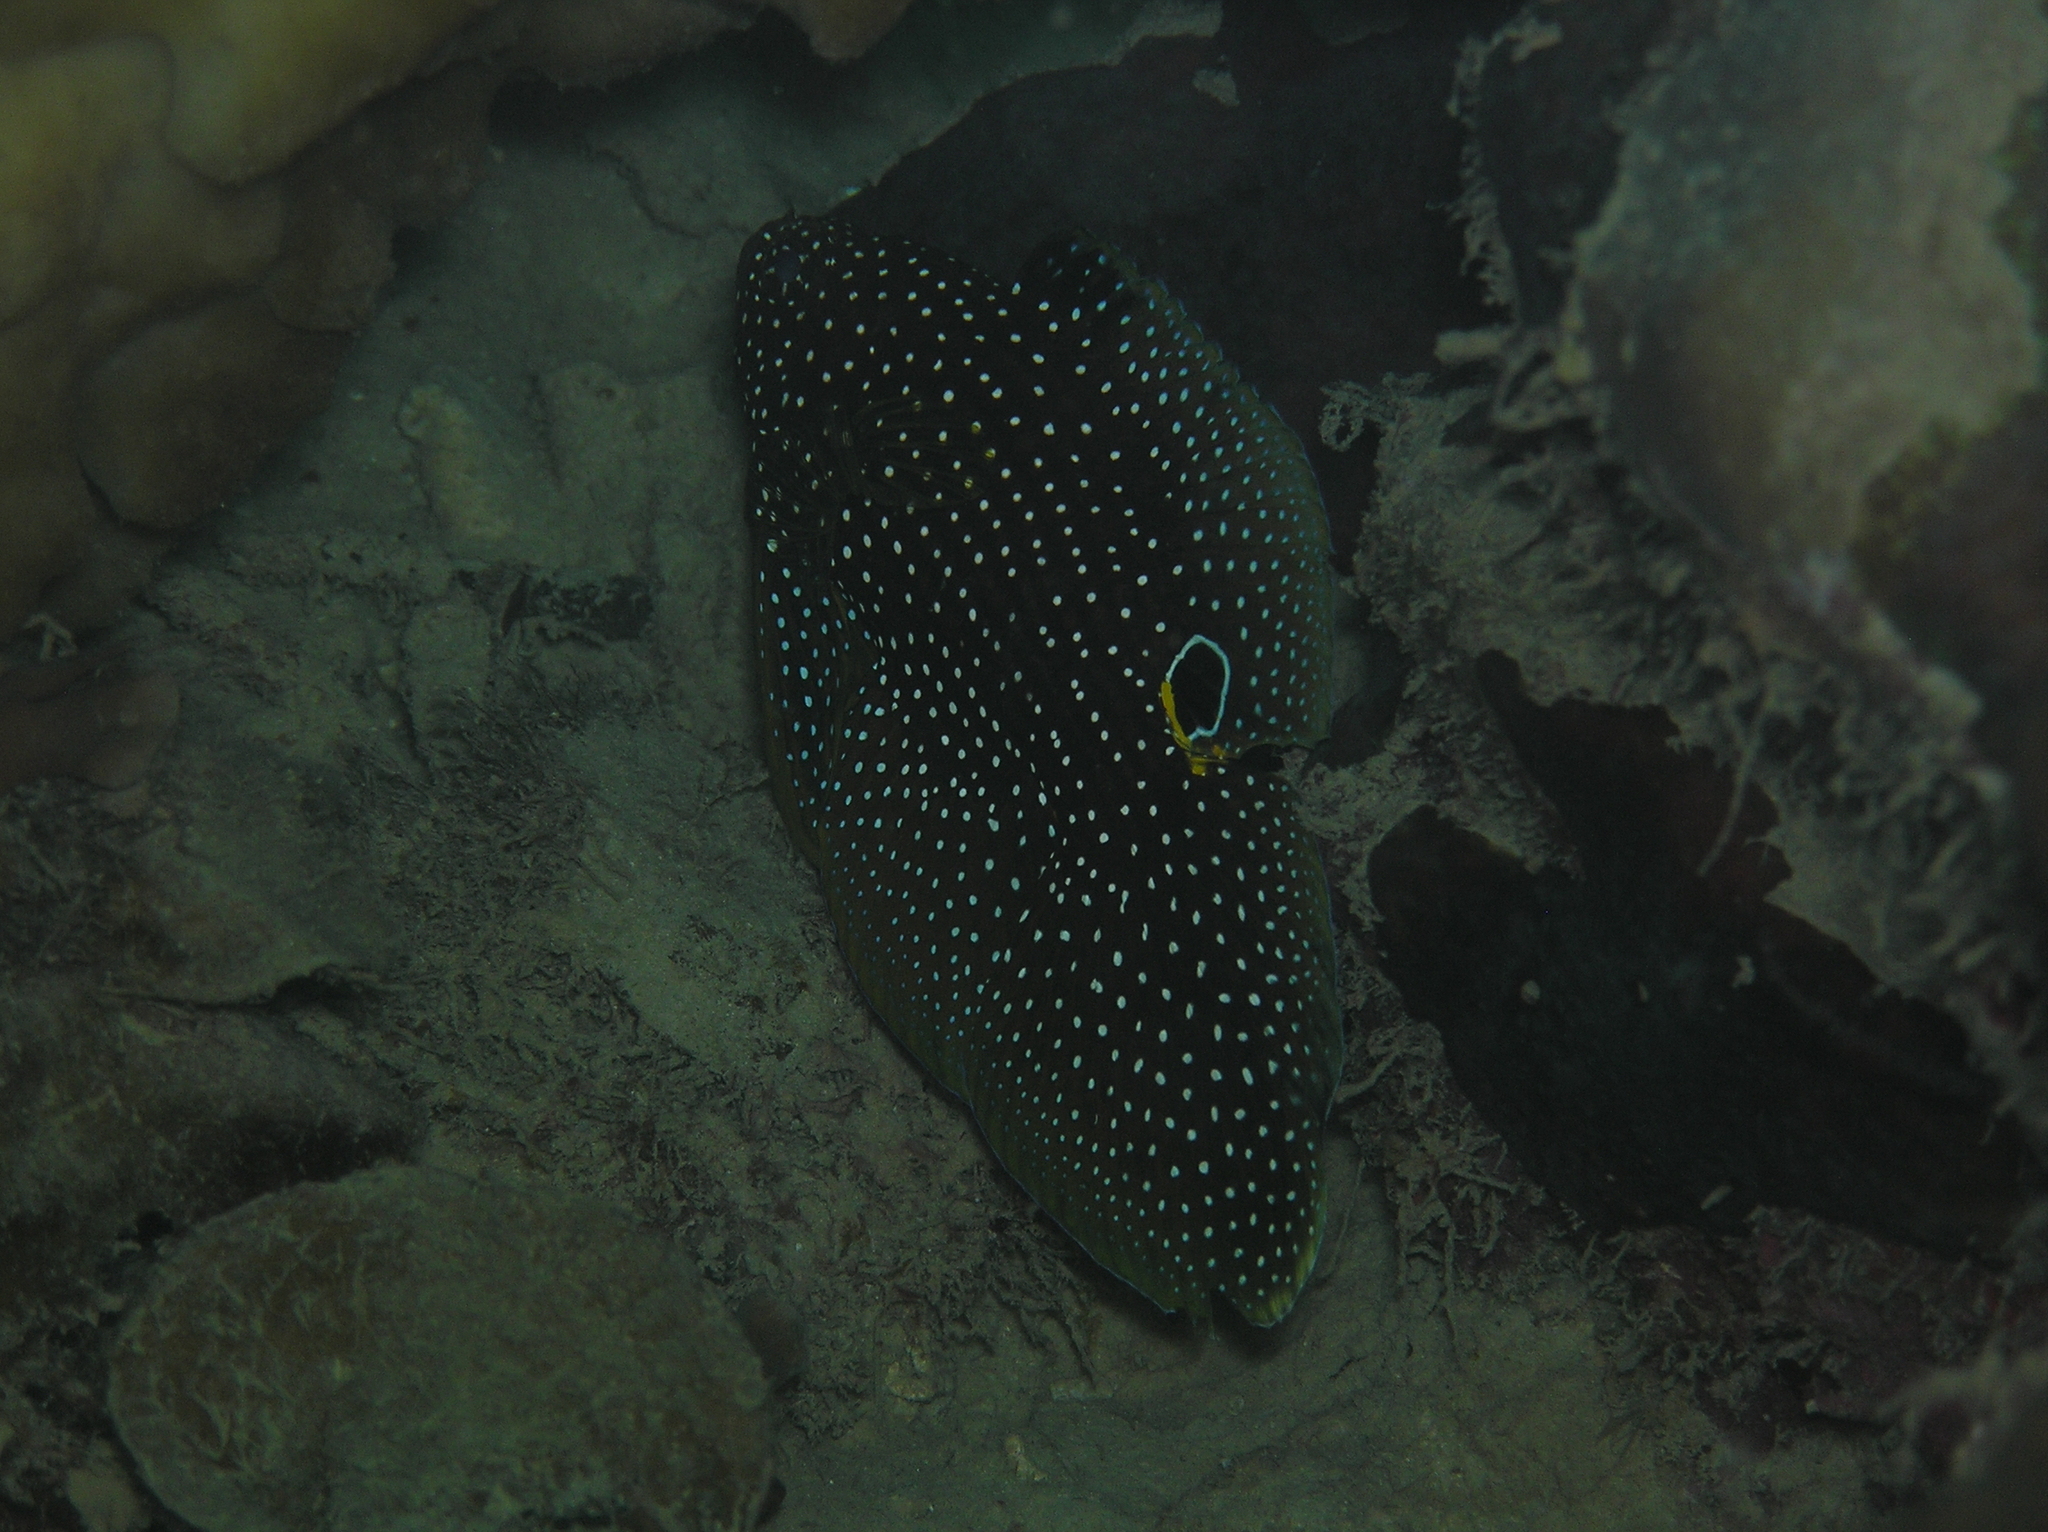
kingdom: Animalia
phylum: Chordata
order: Perciformes
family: Plesiopidae
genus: Calloplesiops
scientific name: Calloplesiops altivelis
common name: Comet
